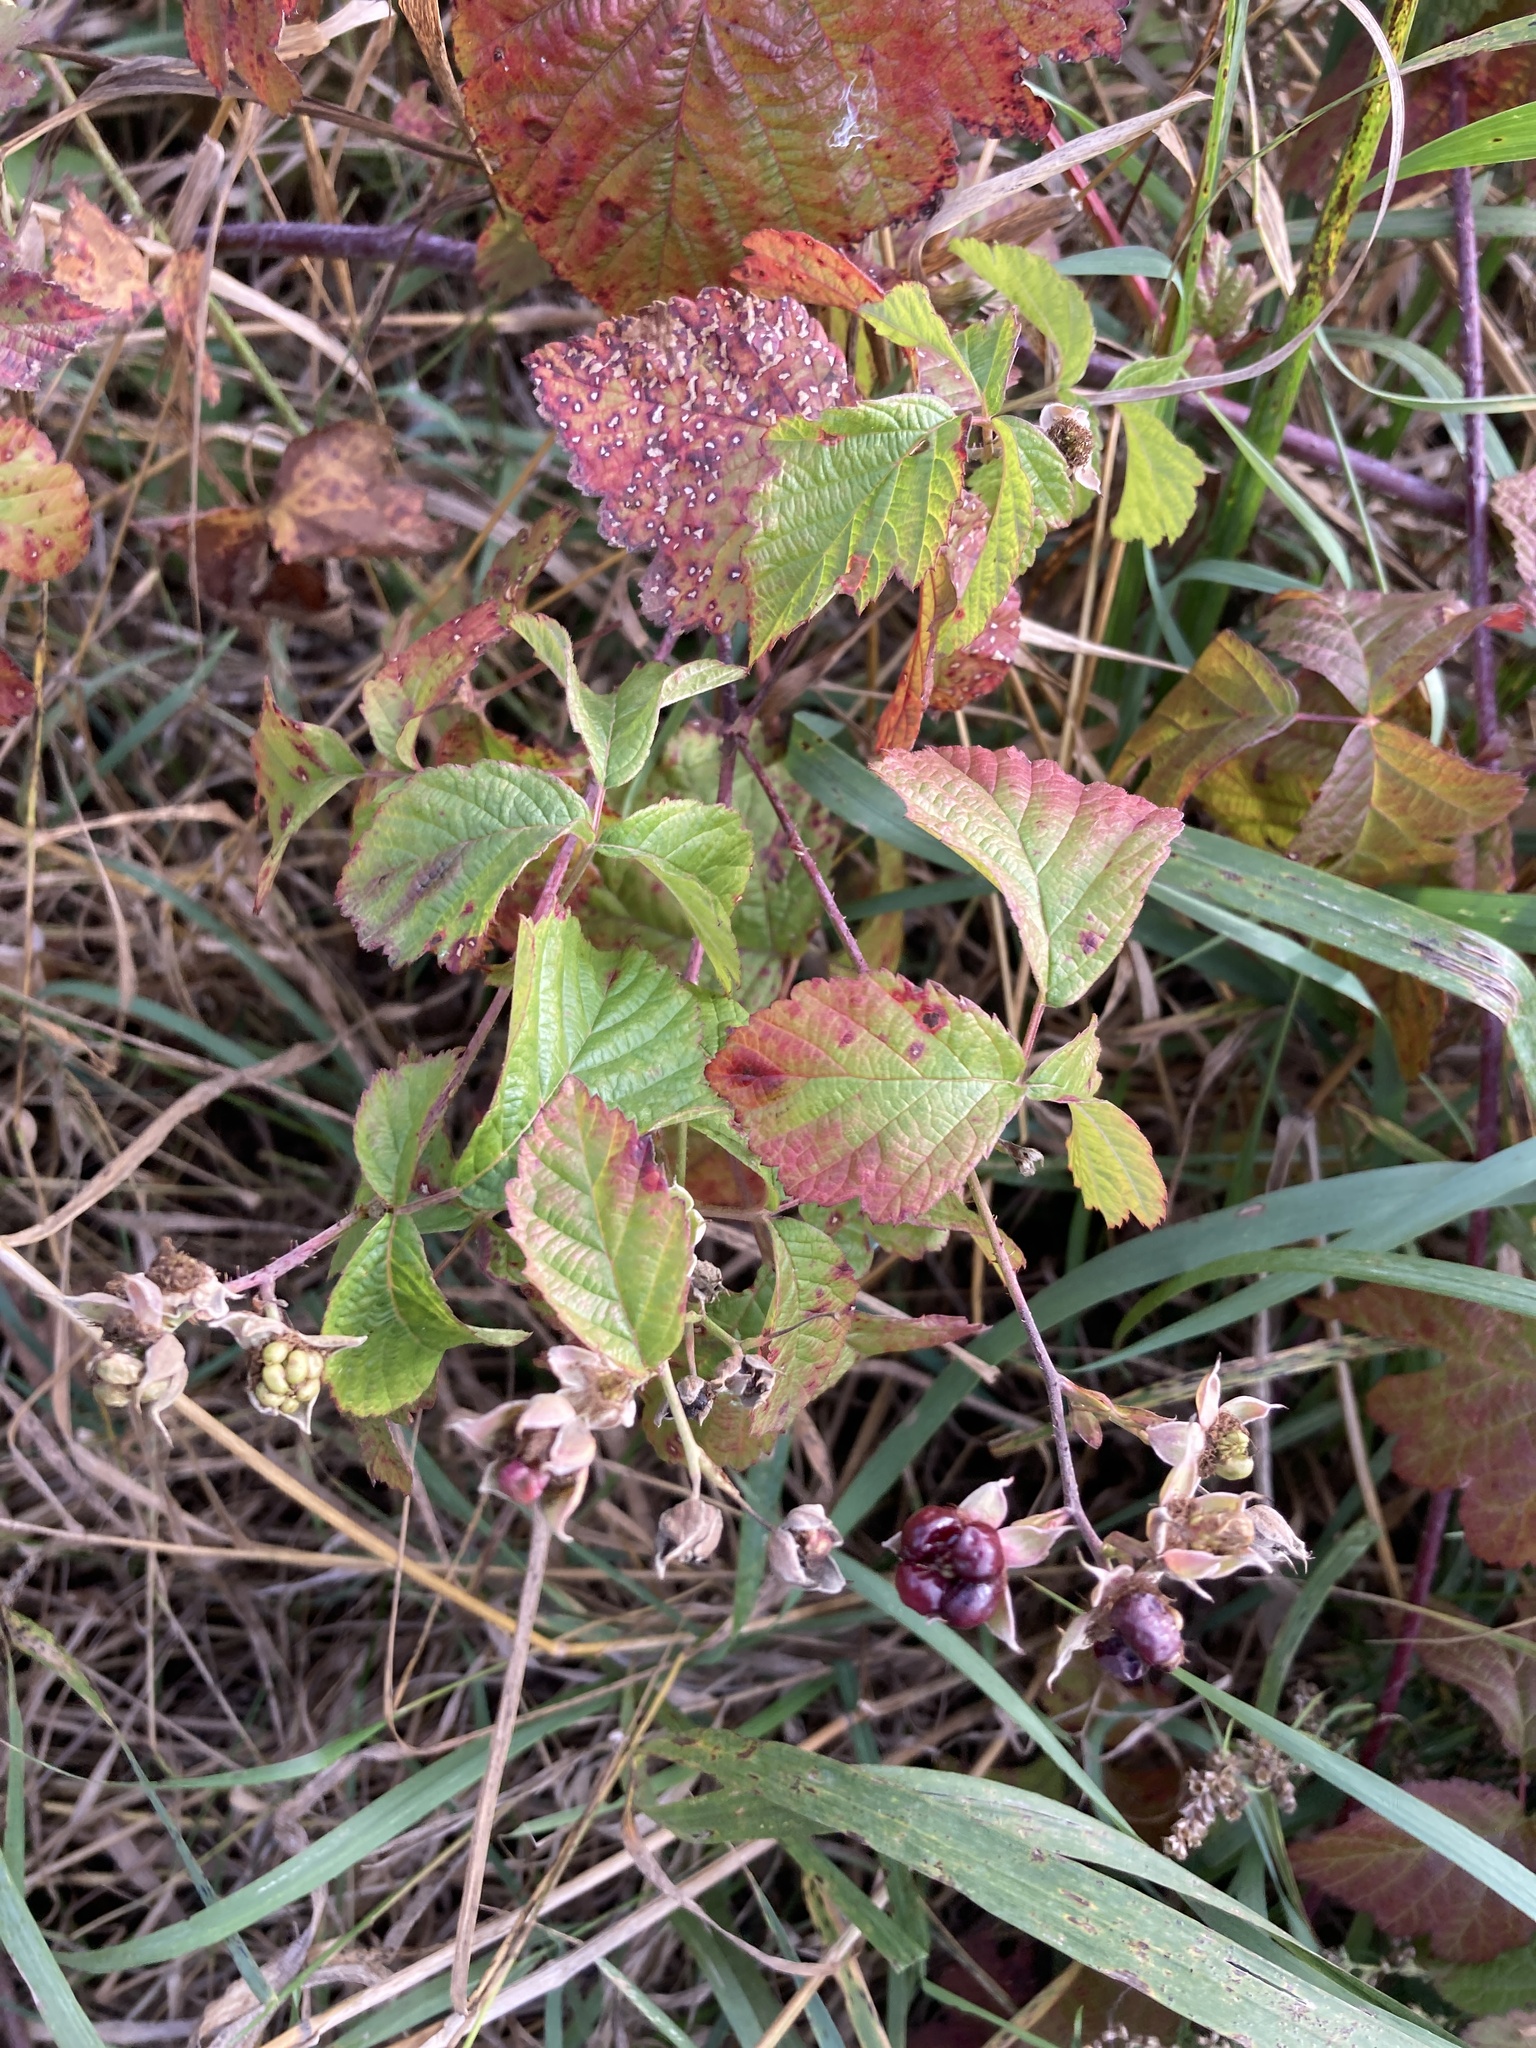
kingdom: Plantae
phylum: Tracheophyta
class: Magnoliopsida
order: Rosales
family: Rosaceae
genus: Rubus
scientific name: Rubus caesius
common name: Dewberry
